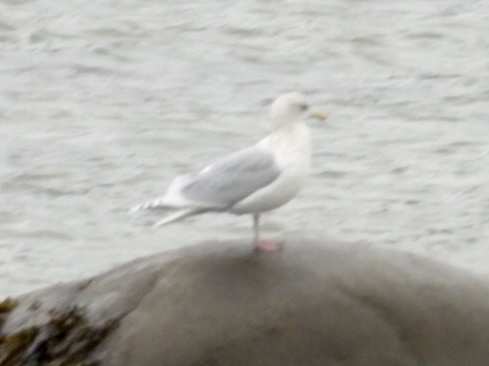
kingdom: Animalia
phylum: Chordata
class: Aves
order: Charadriiformes
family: Laridae
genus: Larus
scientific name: Larus glaucoides
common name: Iceland gull
